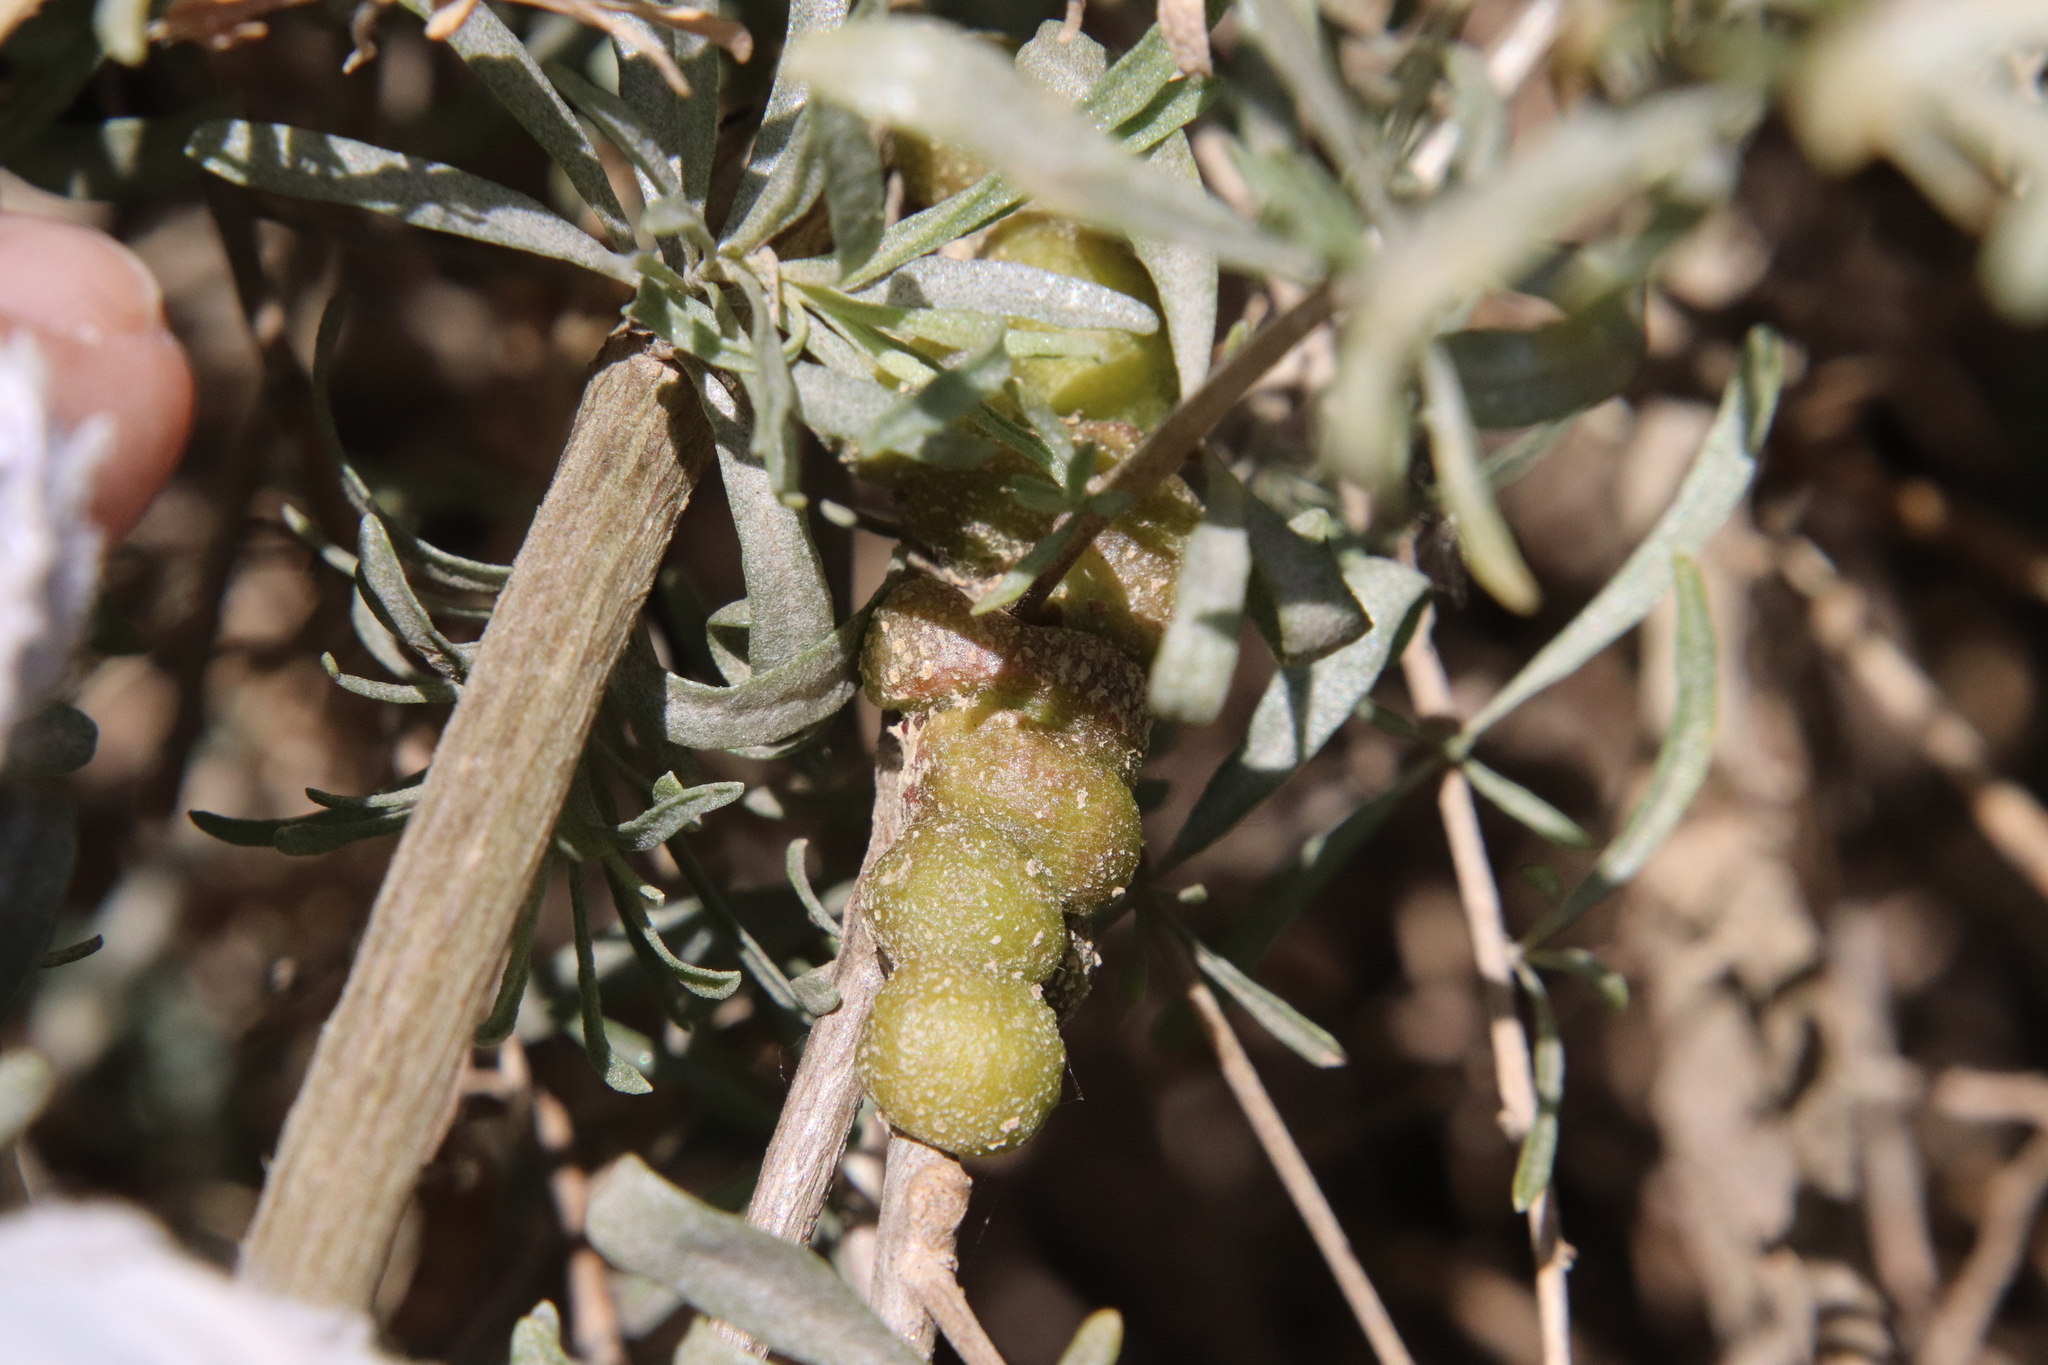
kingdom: Animalia
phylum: Arthropoda
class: Insecta
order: Diptera
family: Cecidomyiidae
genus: Asphondylia
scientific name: Asphondylia atriplicis
